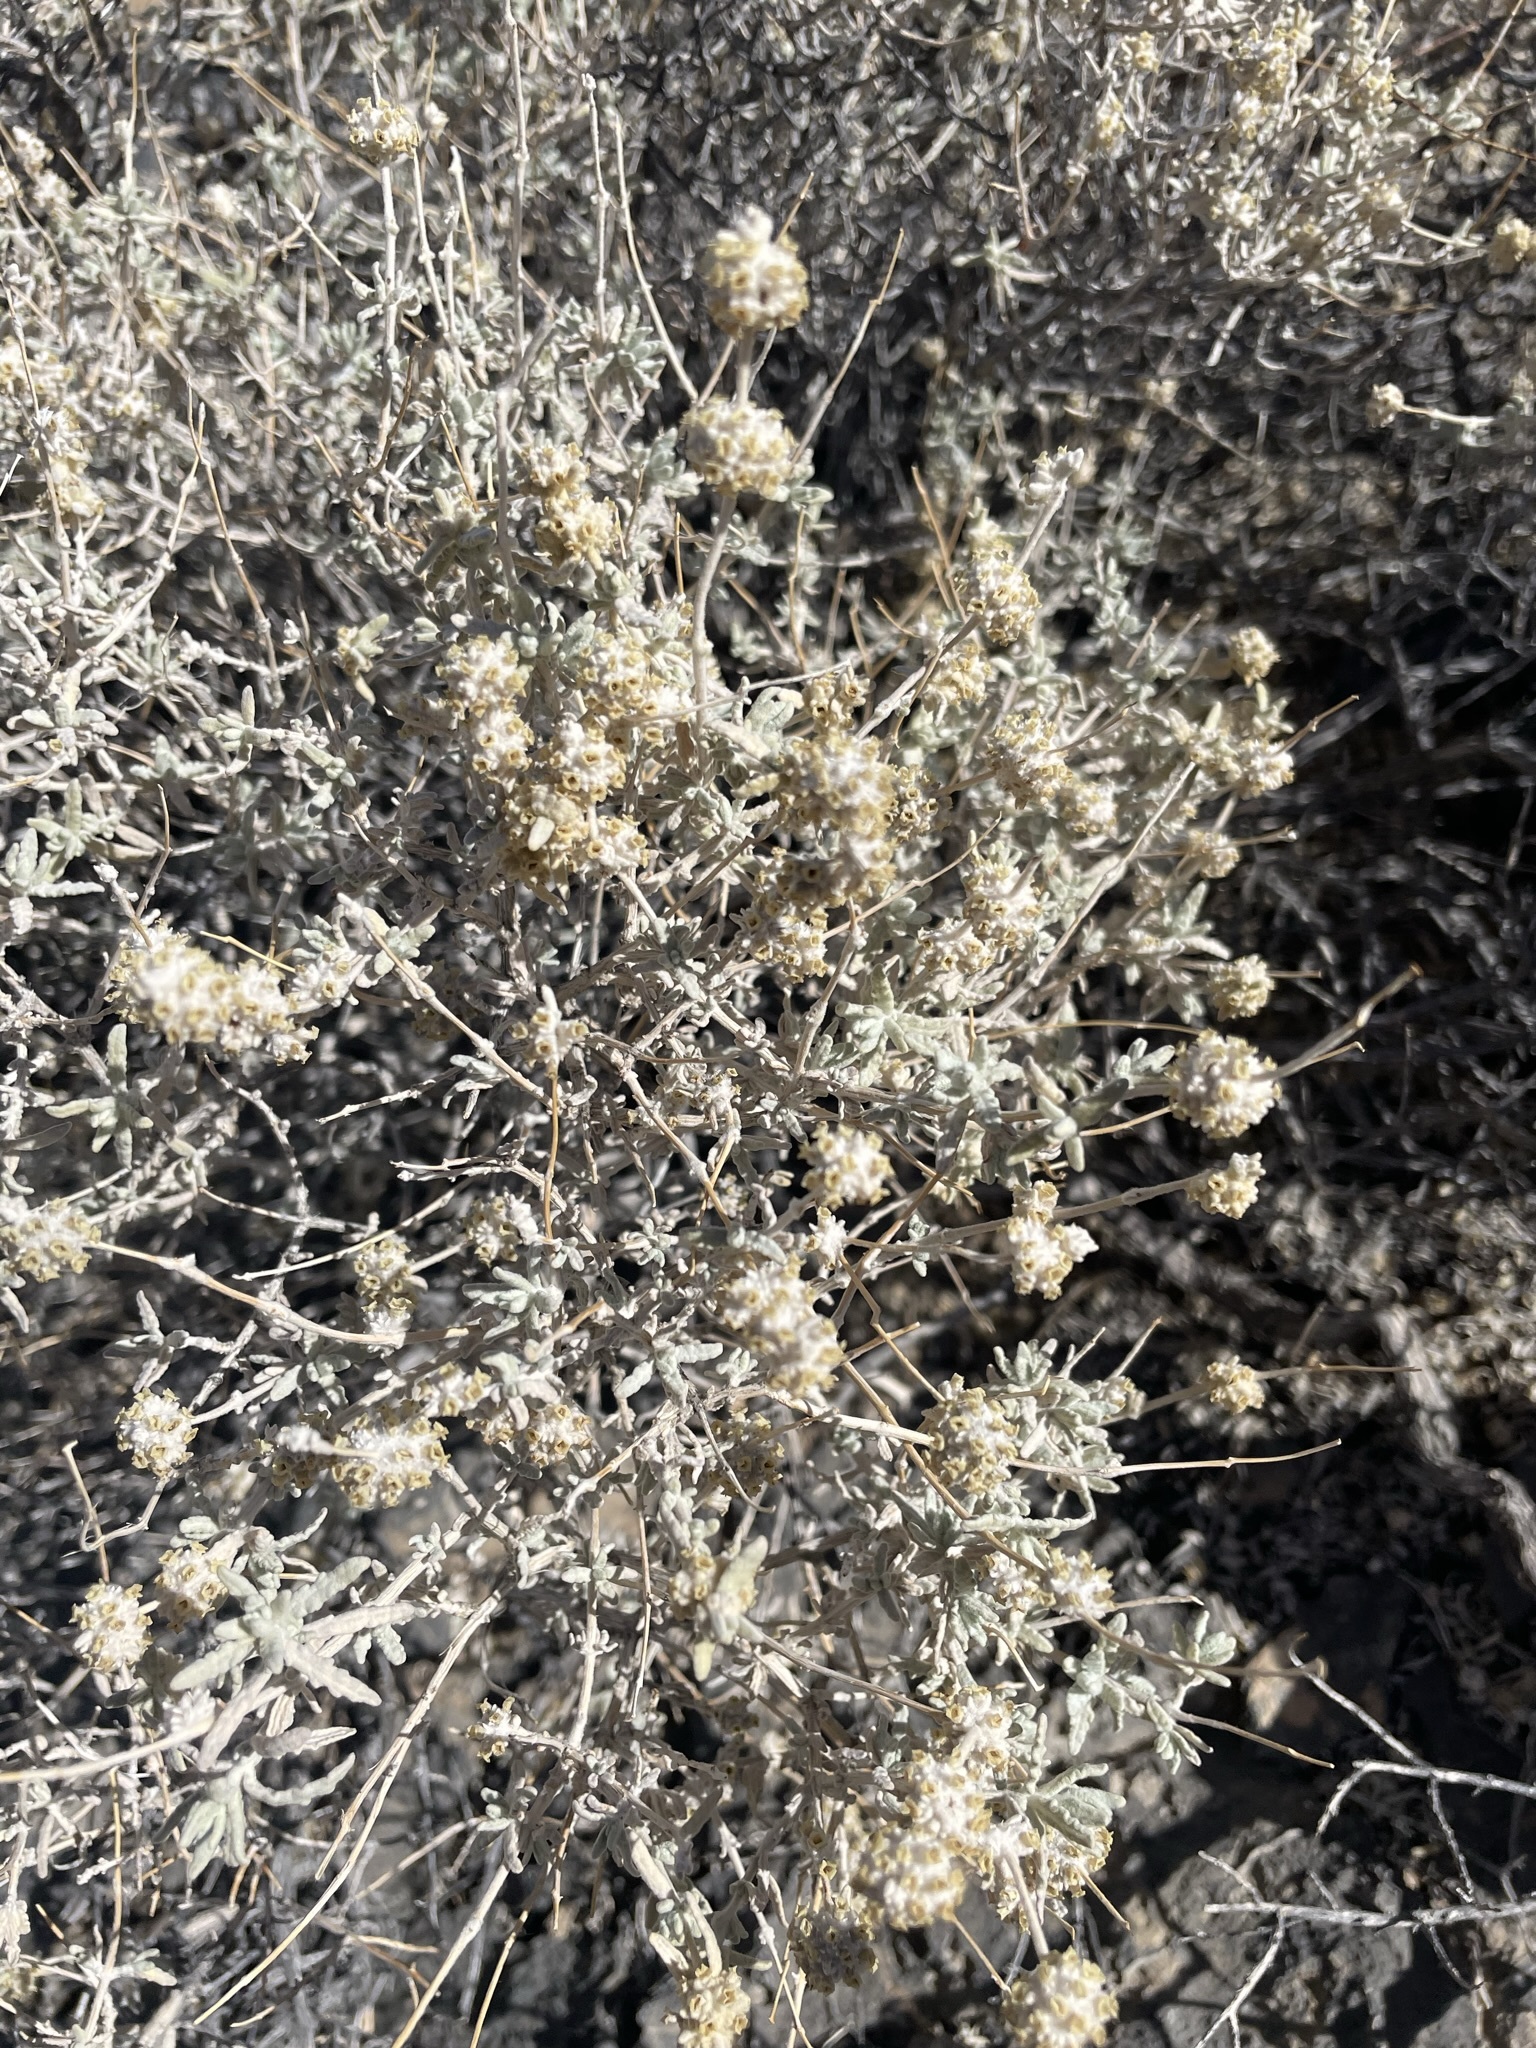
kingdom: Plantae
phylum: Tracheophyta
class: Magnoliopsida
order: Lamiales
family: Scrophulariaceae
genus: Buddleja
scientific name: Buddleja utahensis
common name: Utah butterfly-bush
